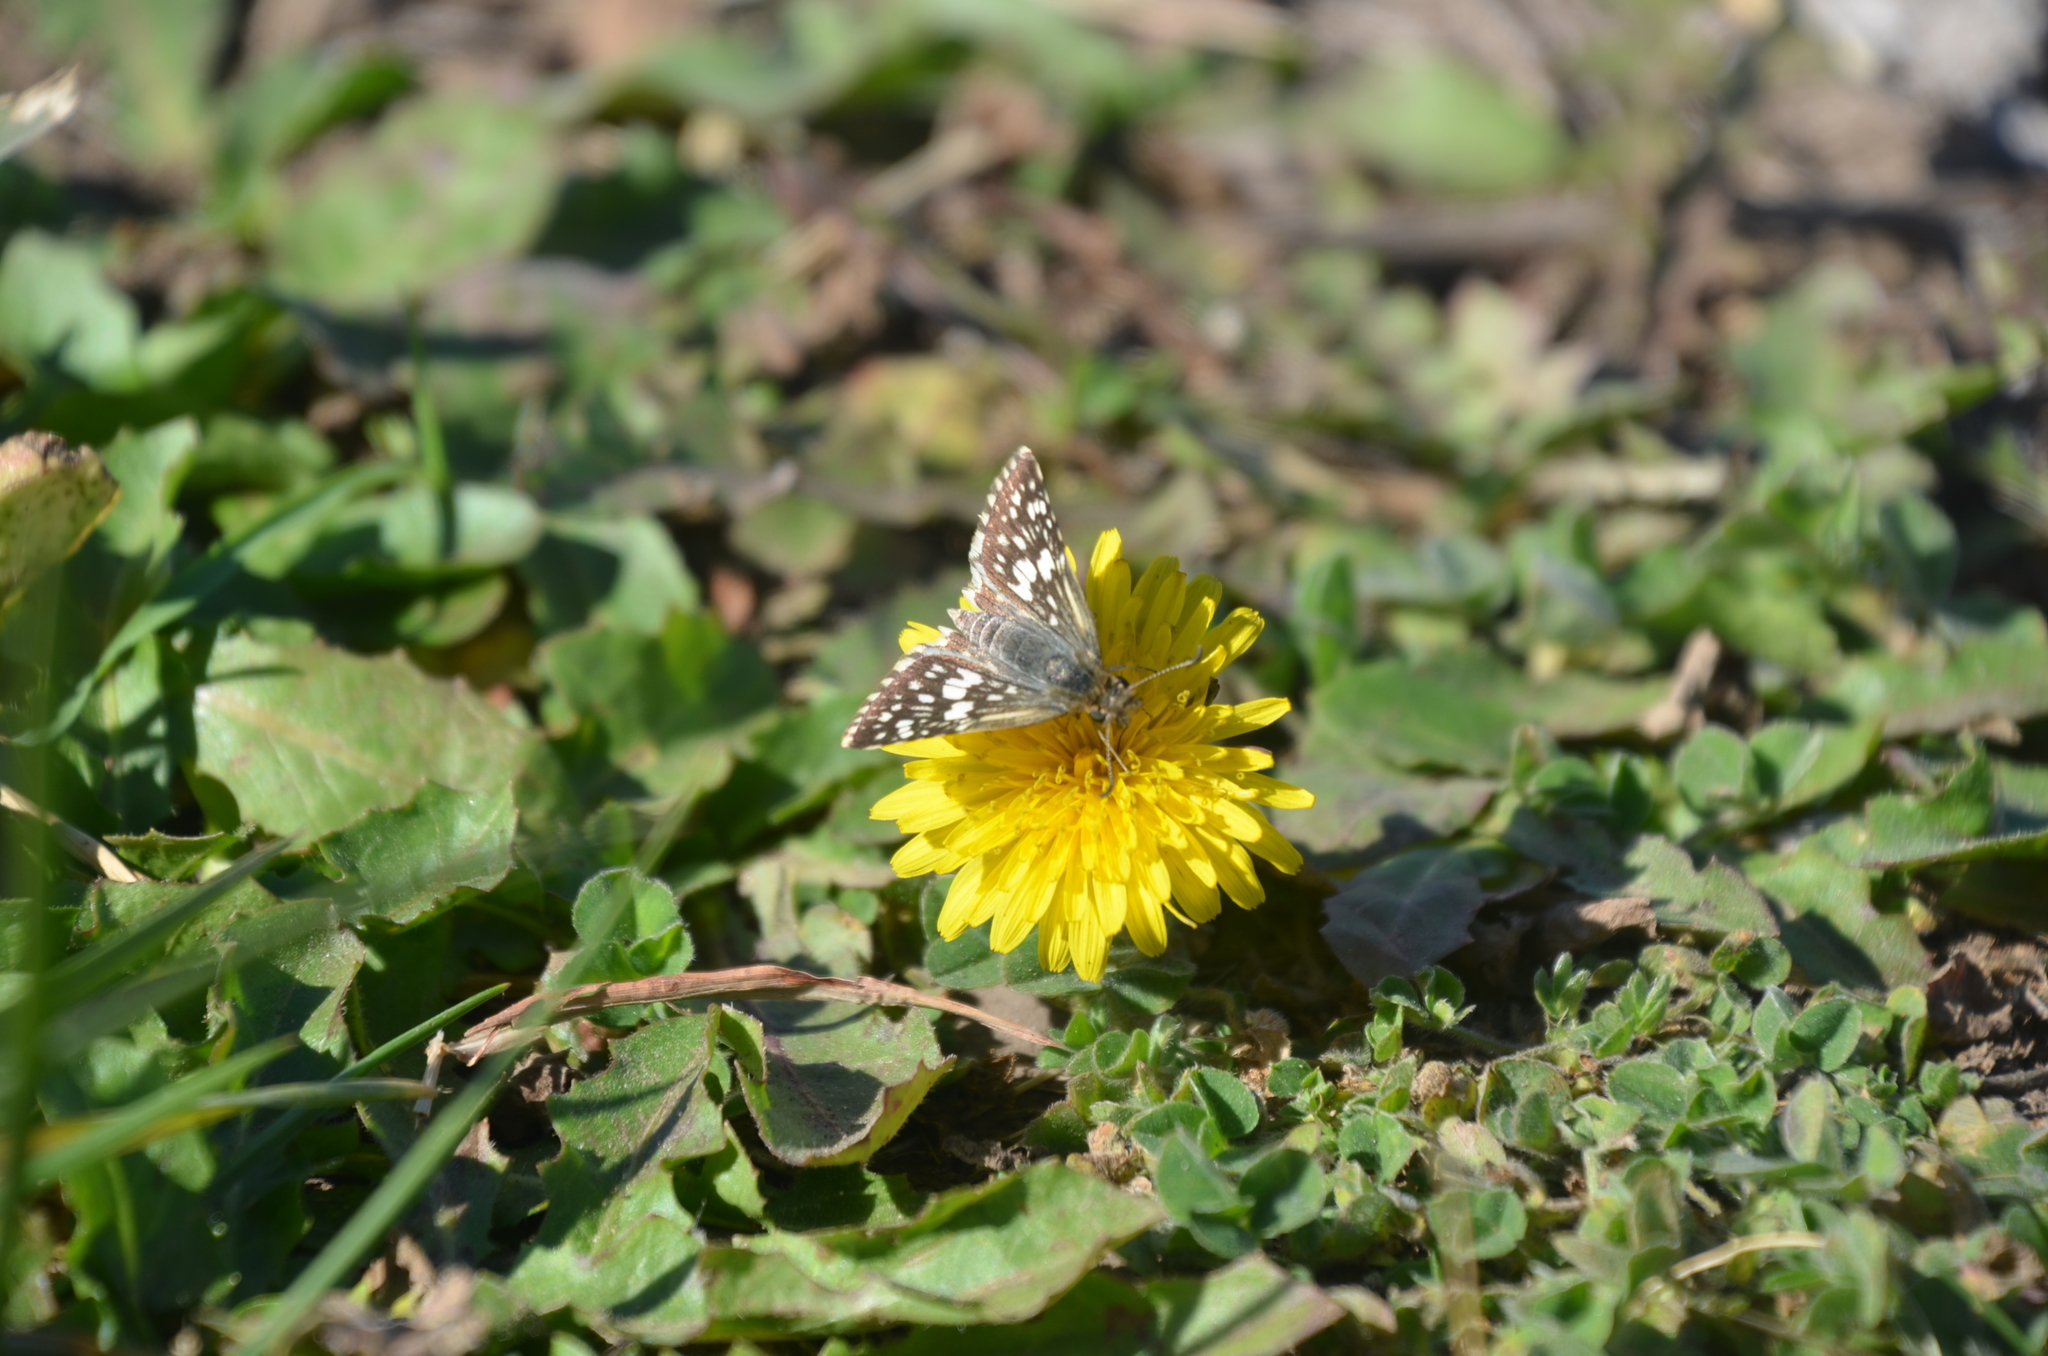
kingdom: Animalia
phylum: Arthropoda
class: Insecta
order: Lepidoptera
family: Hesperiidae
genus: Burnsius
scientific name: Burnsius orcynoides
